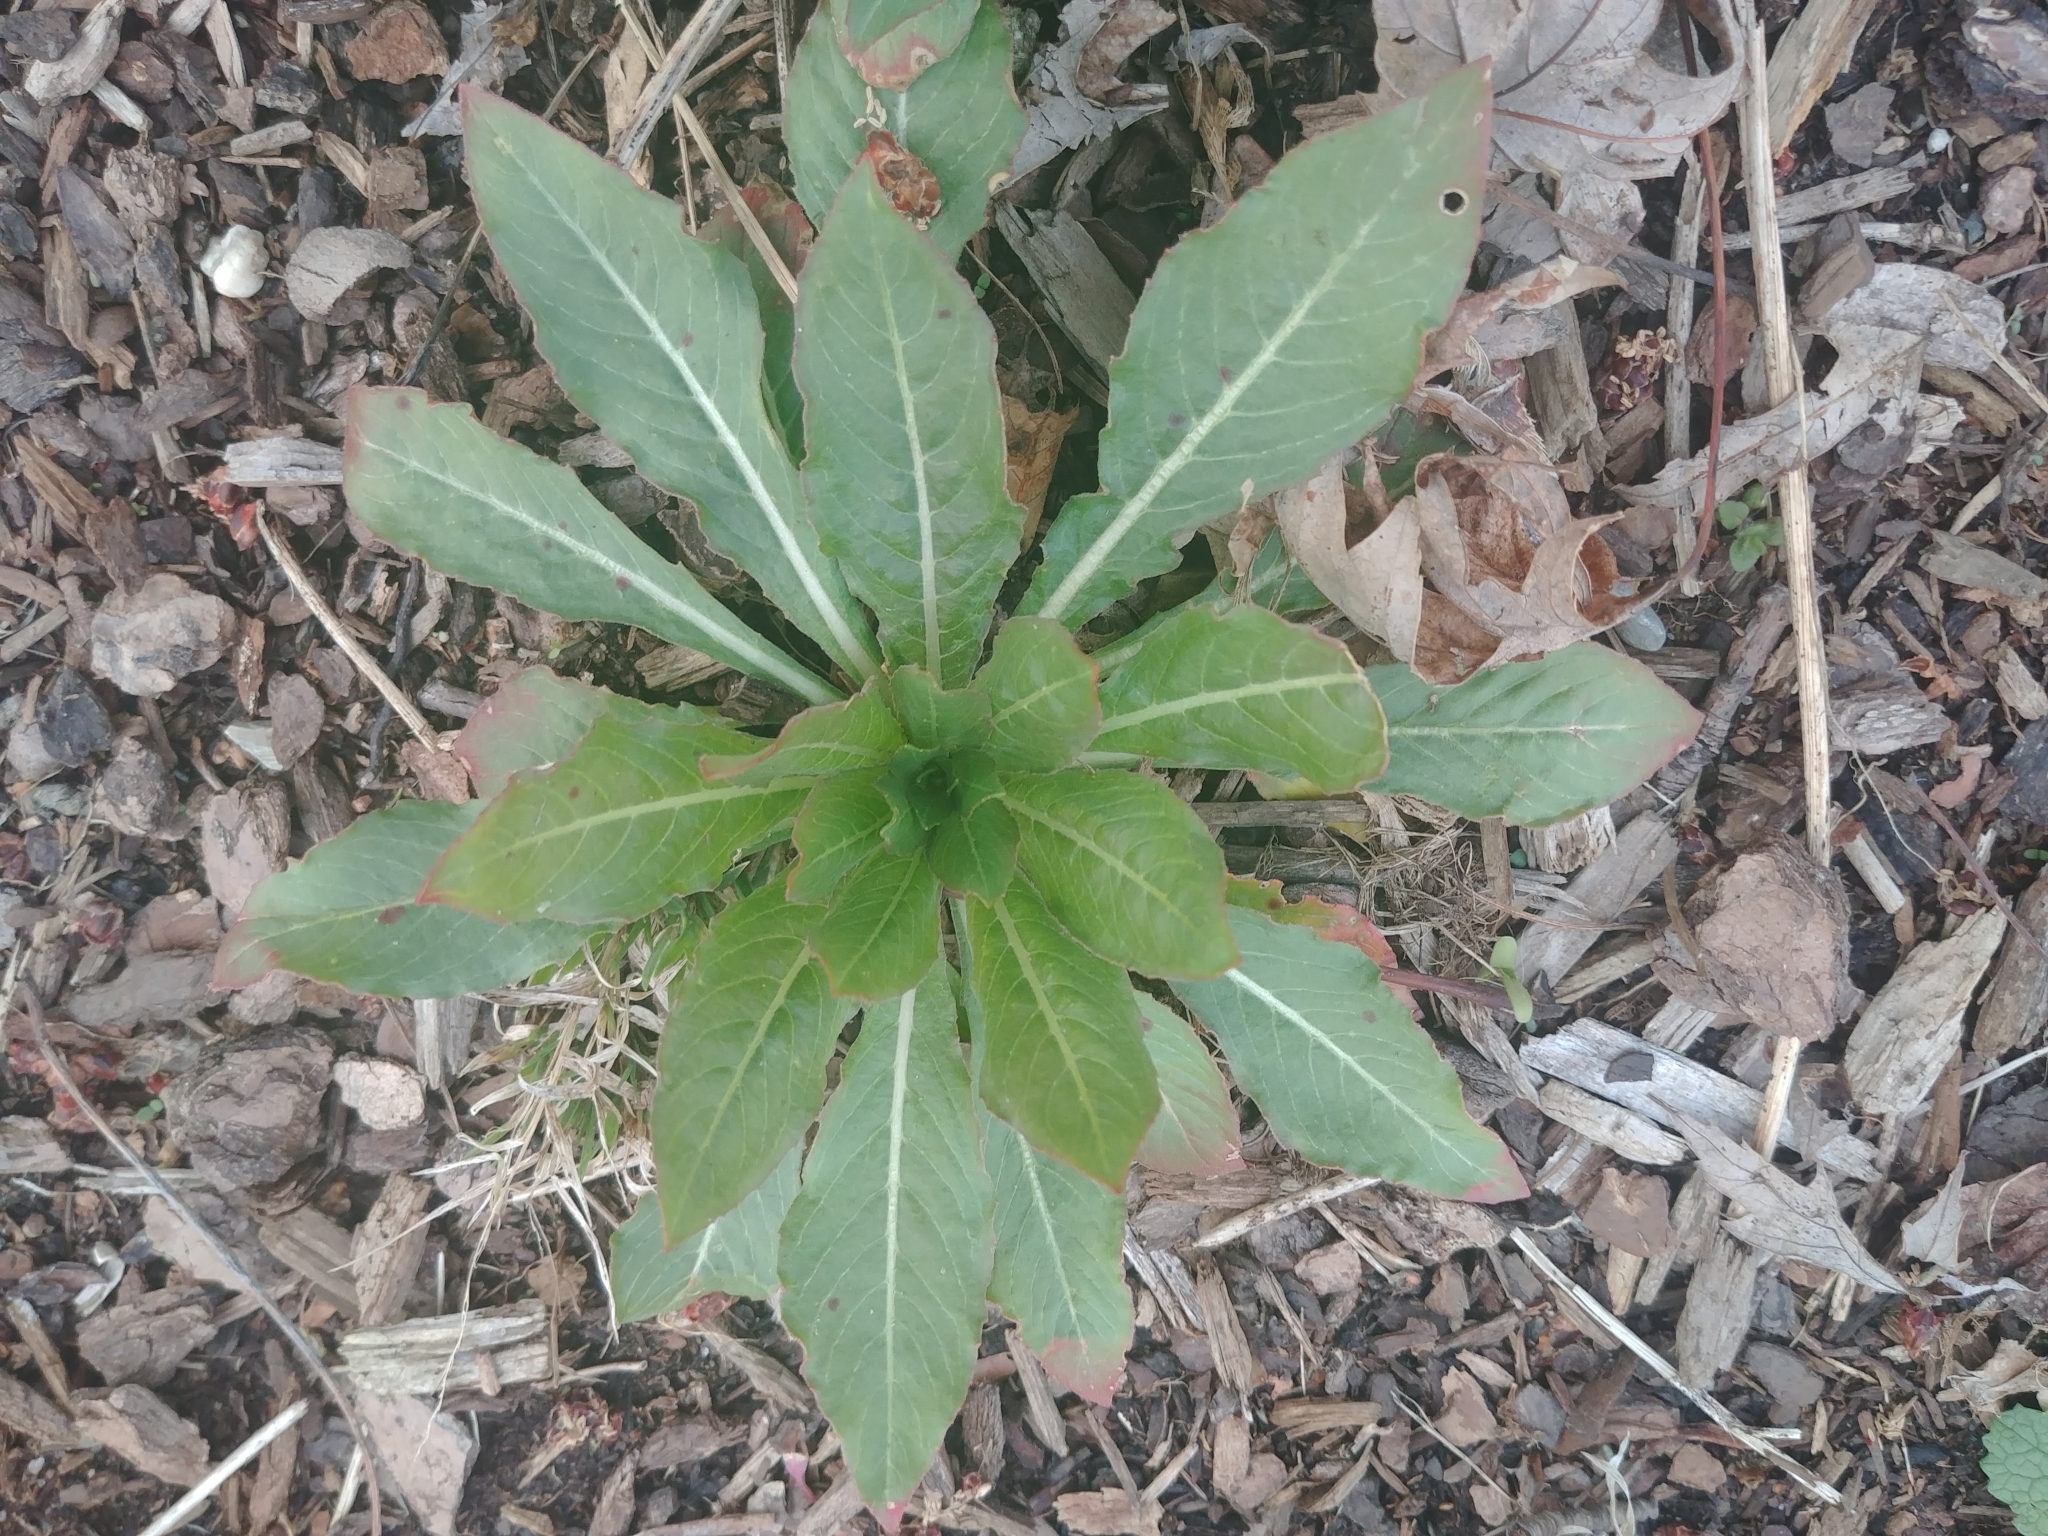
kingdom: Plantae
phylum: Tracheophyta
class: Magnoliopsida
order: Myrtales
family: Onagraceae
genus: Oenothera
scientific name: Oenothera biennis
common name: Common evening-primrose
